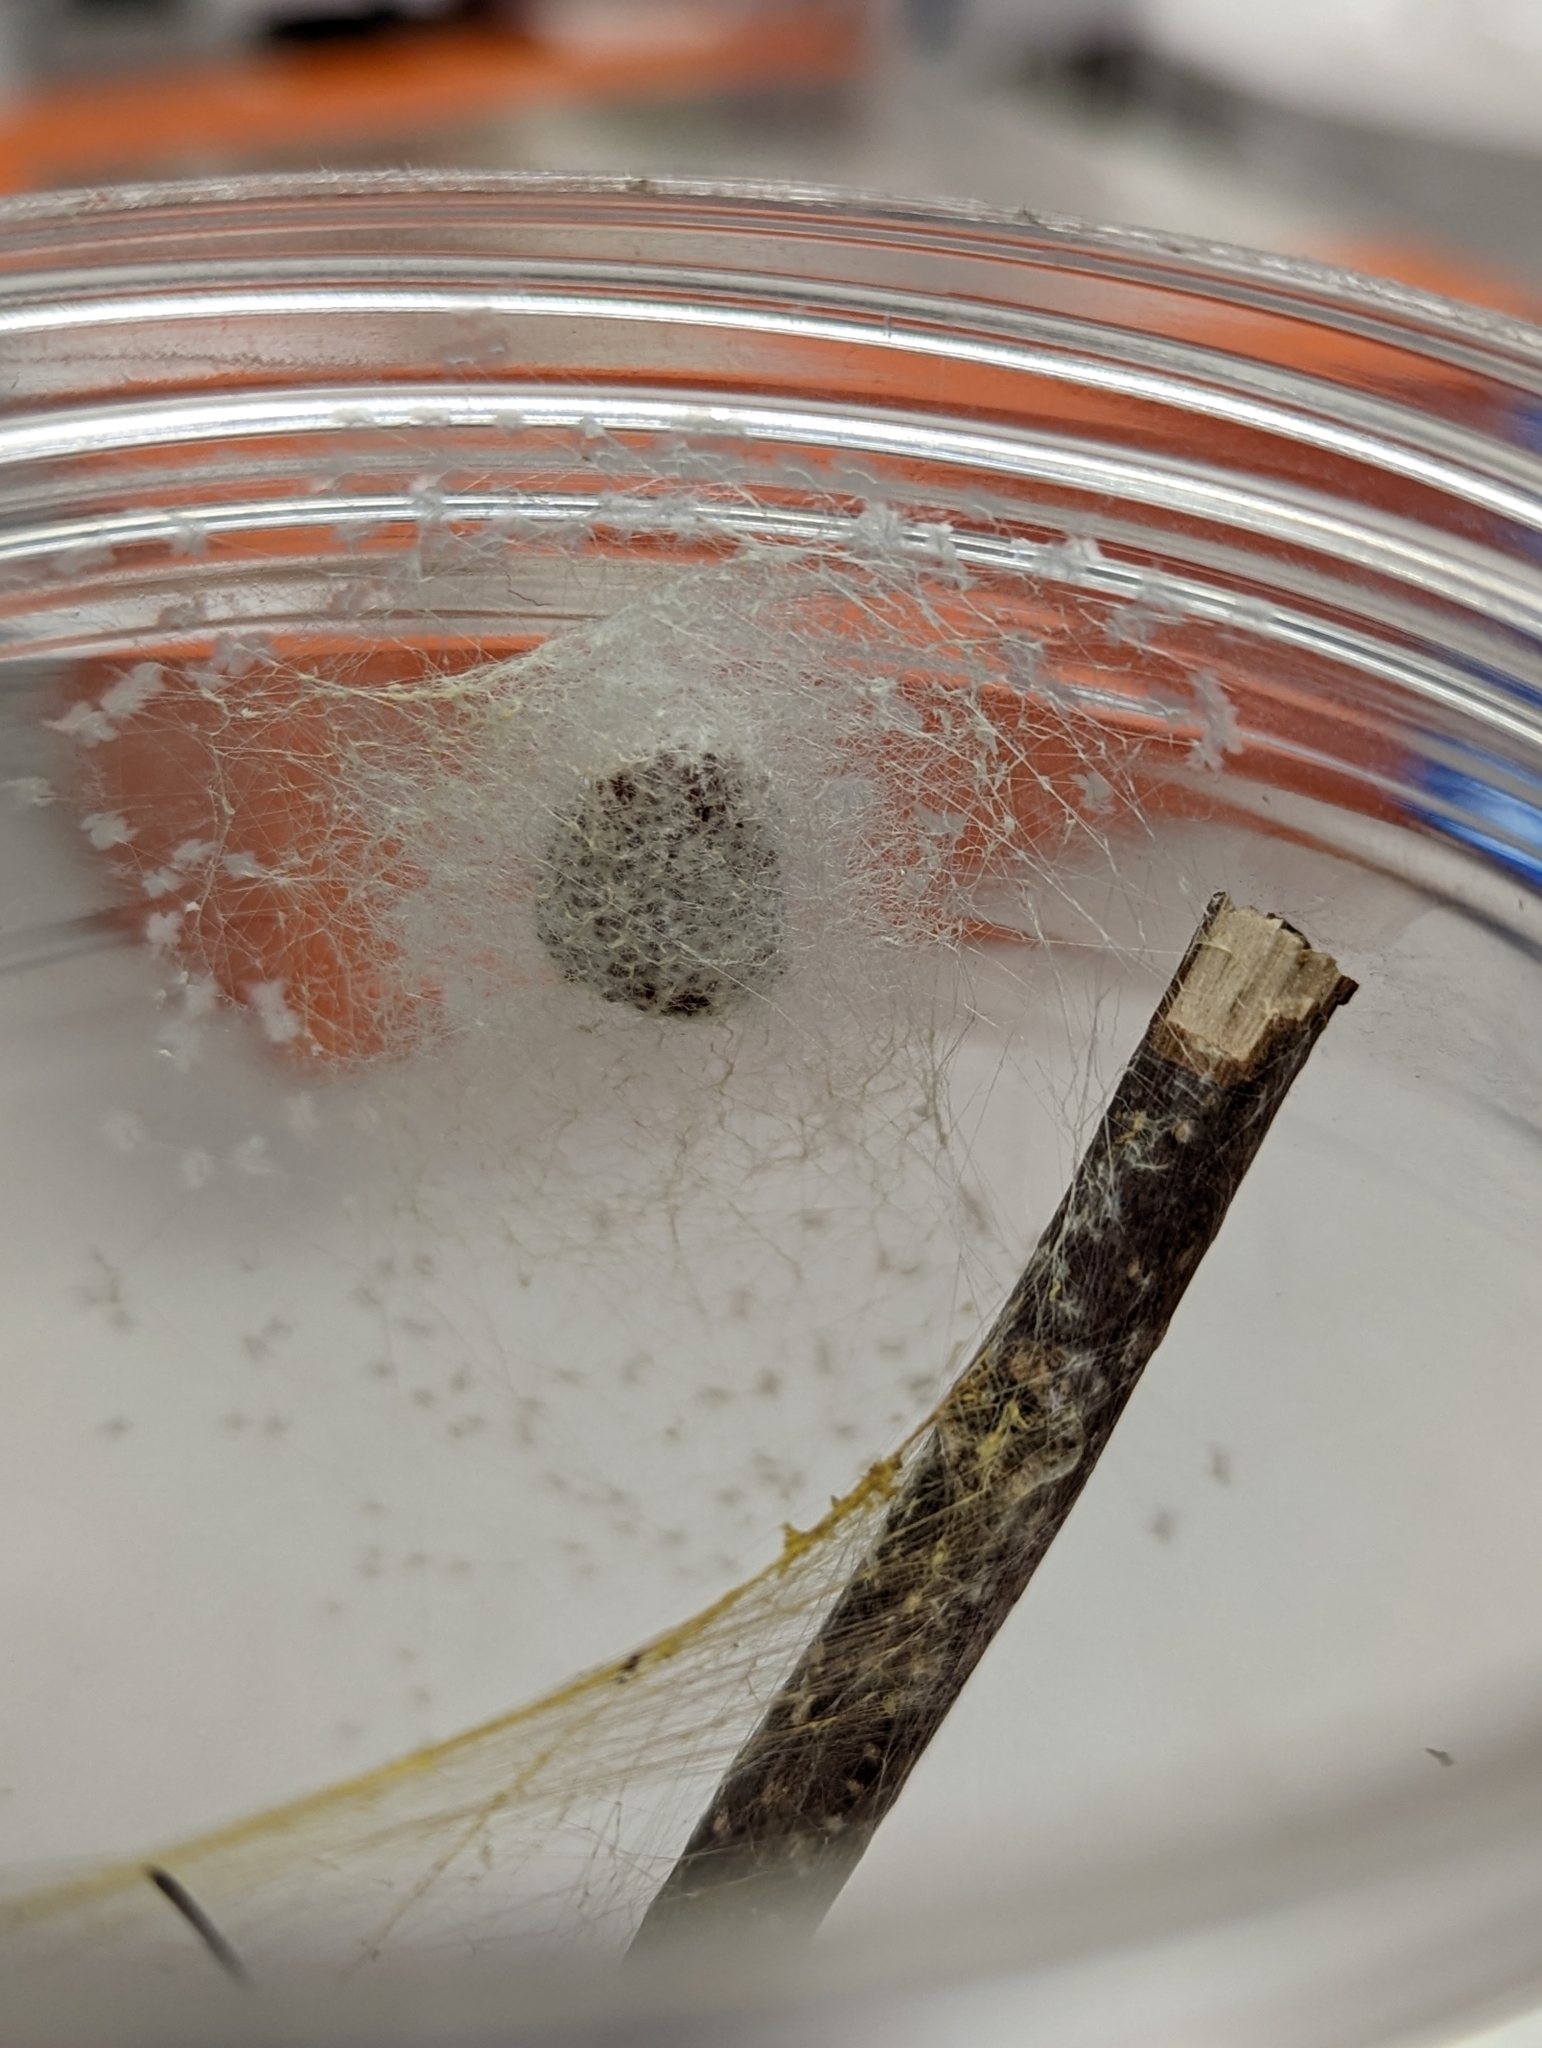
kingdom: Animalia
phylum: Arthropoda
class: Arachnida
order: Araneae
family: Araneidae
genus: Trichonephila
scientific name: Trichonephila clavata
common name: Jorō spider
